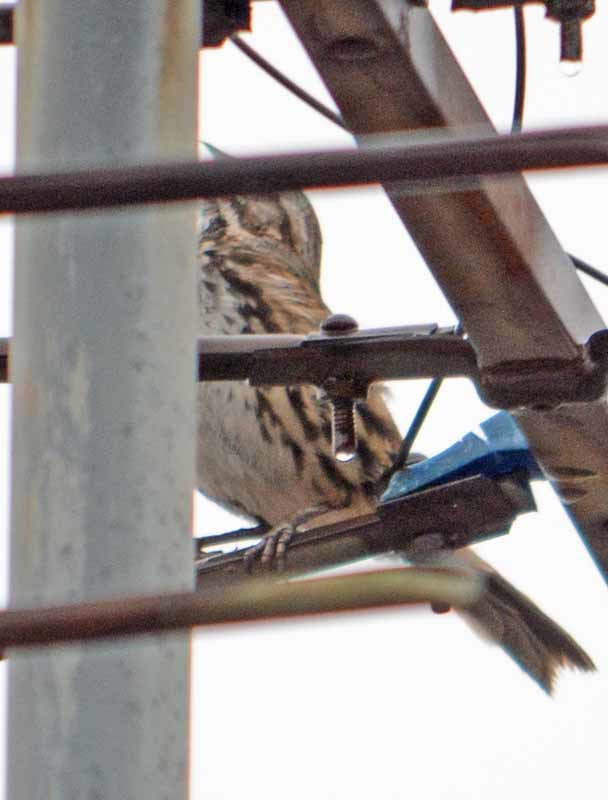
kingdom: Animalia
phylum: Chordata
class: Aves
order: Passeriformes
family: Passerellidae
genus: Melospiza
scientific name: Melospiza melodia
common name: Song sparrow
